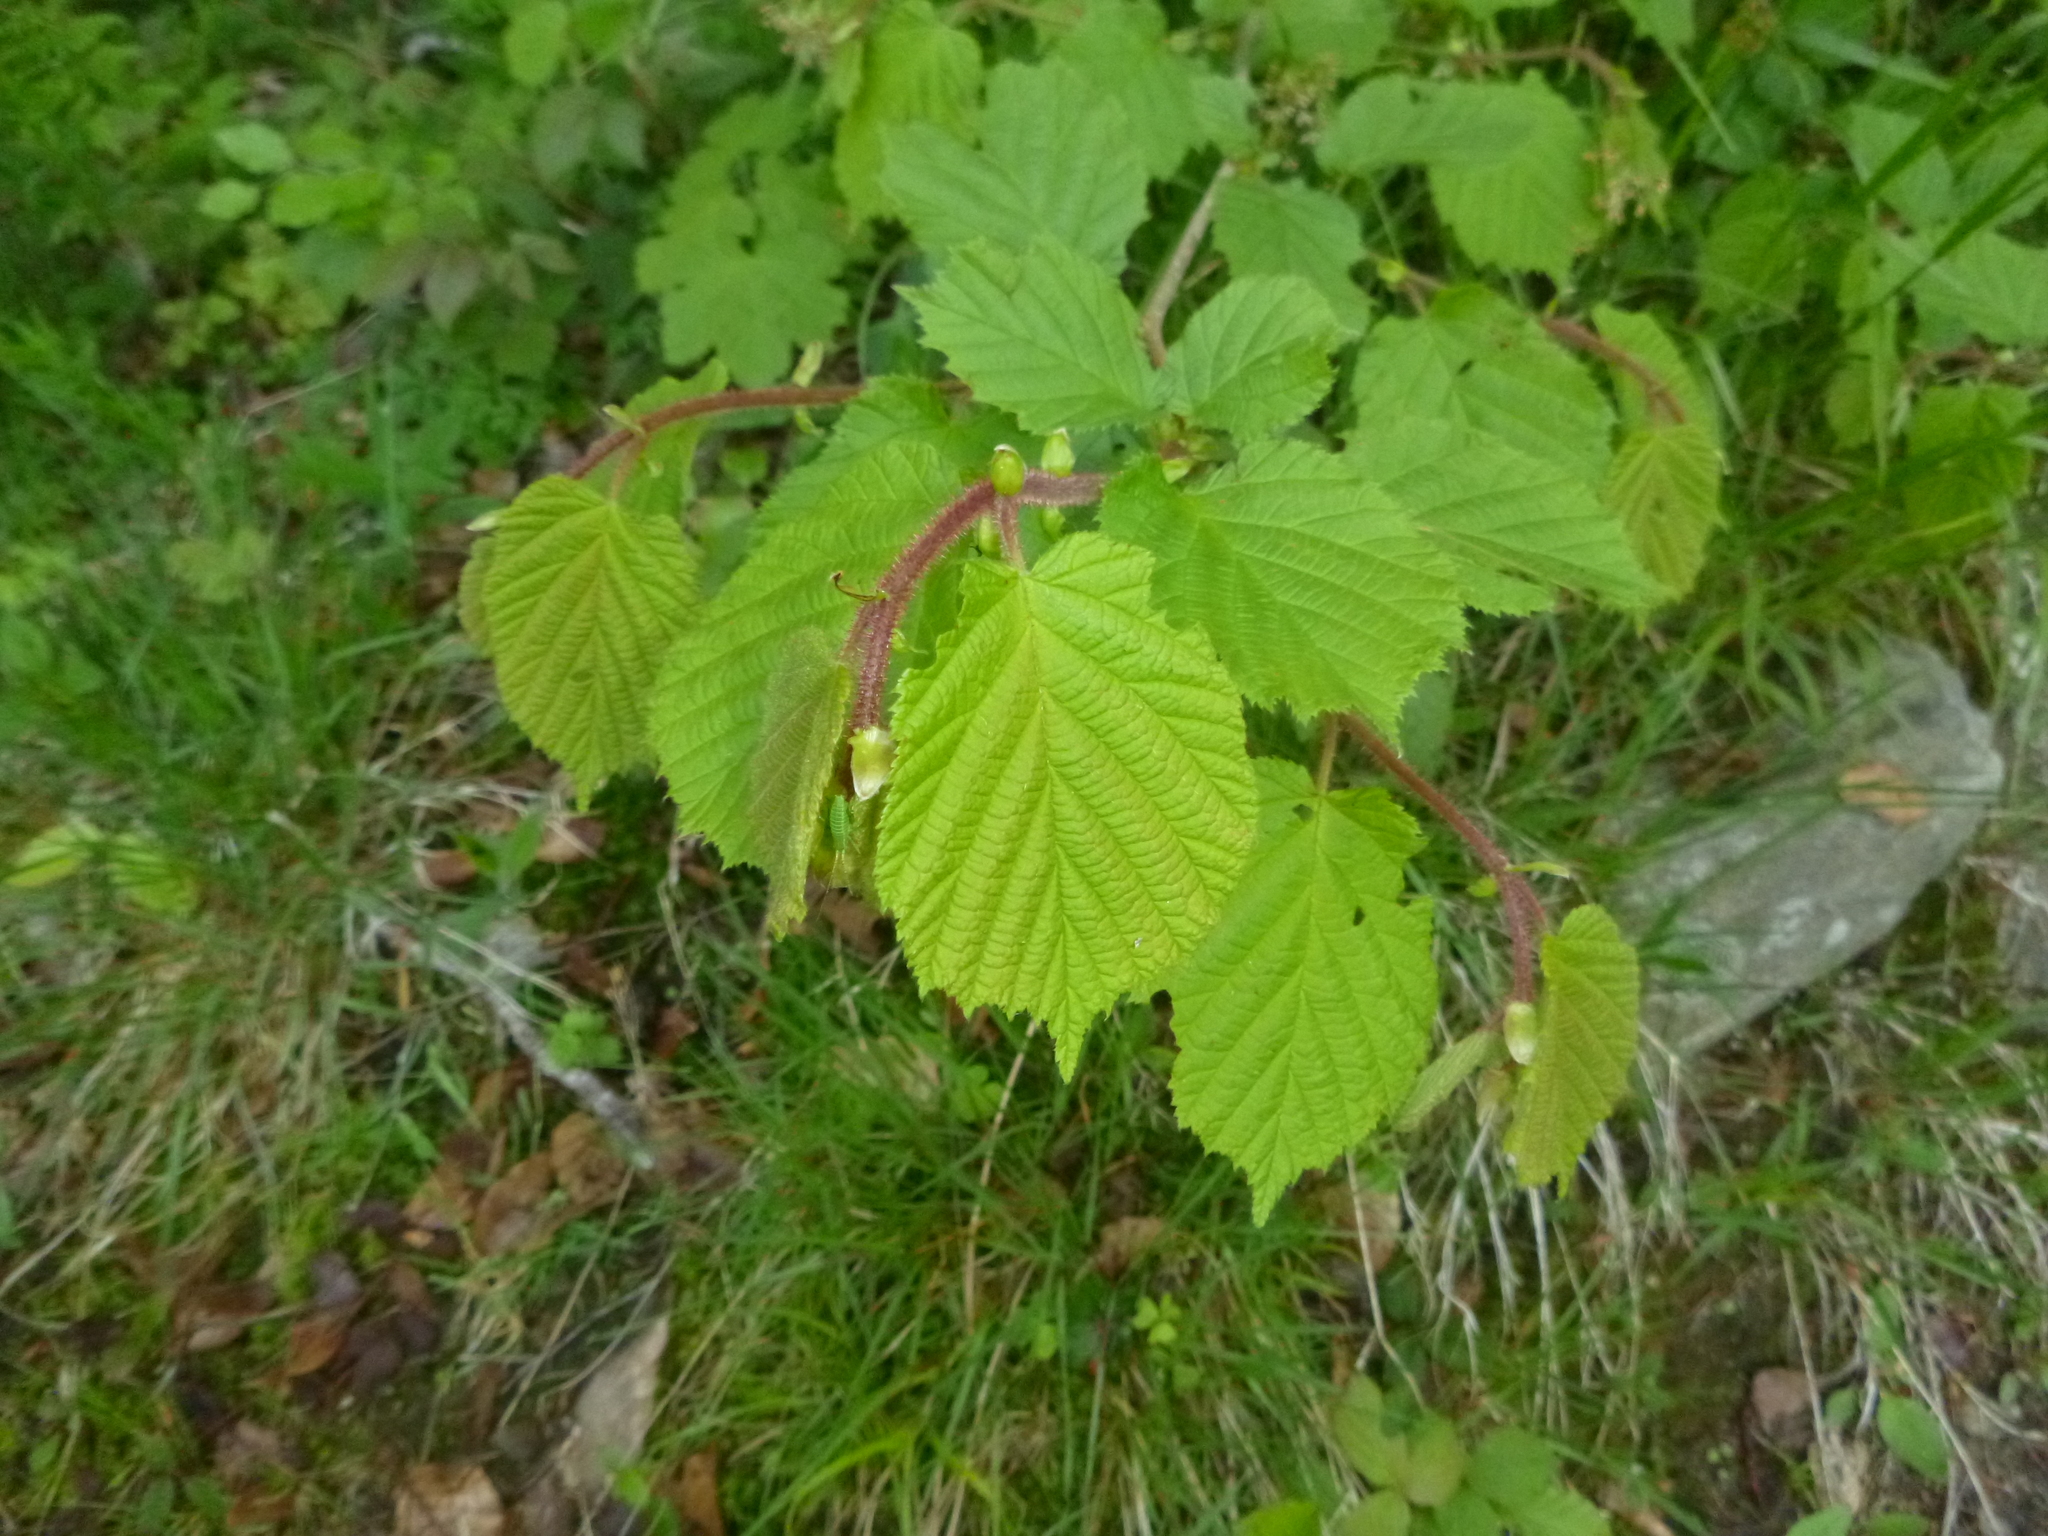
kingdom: Plantae
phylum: Tracheophyta
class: Magnoliopsida
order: Fagales
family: Betulaceae
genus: Corylus
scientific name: Corylus avellana
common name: European hazel
